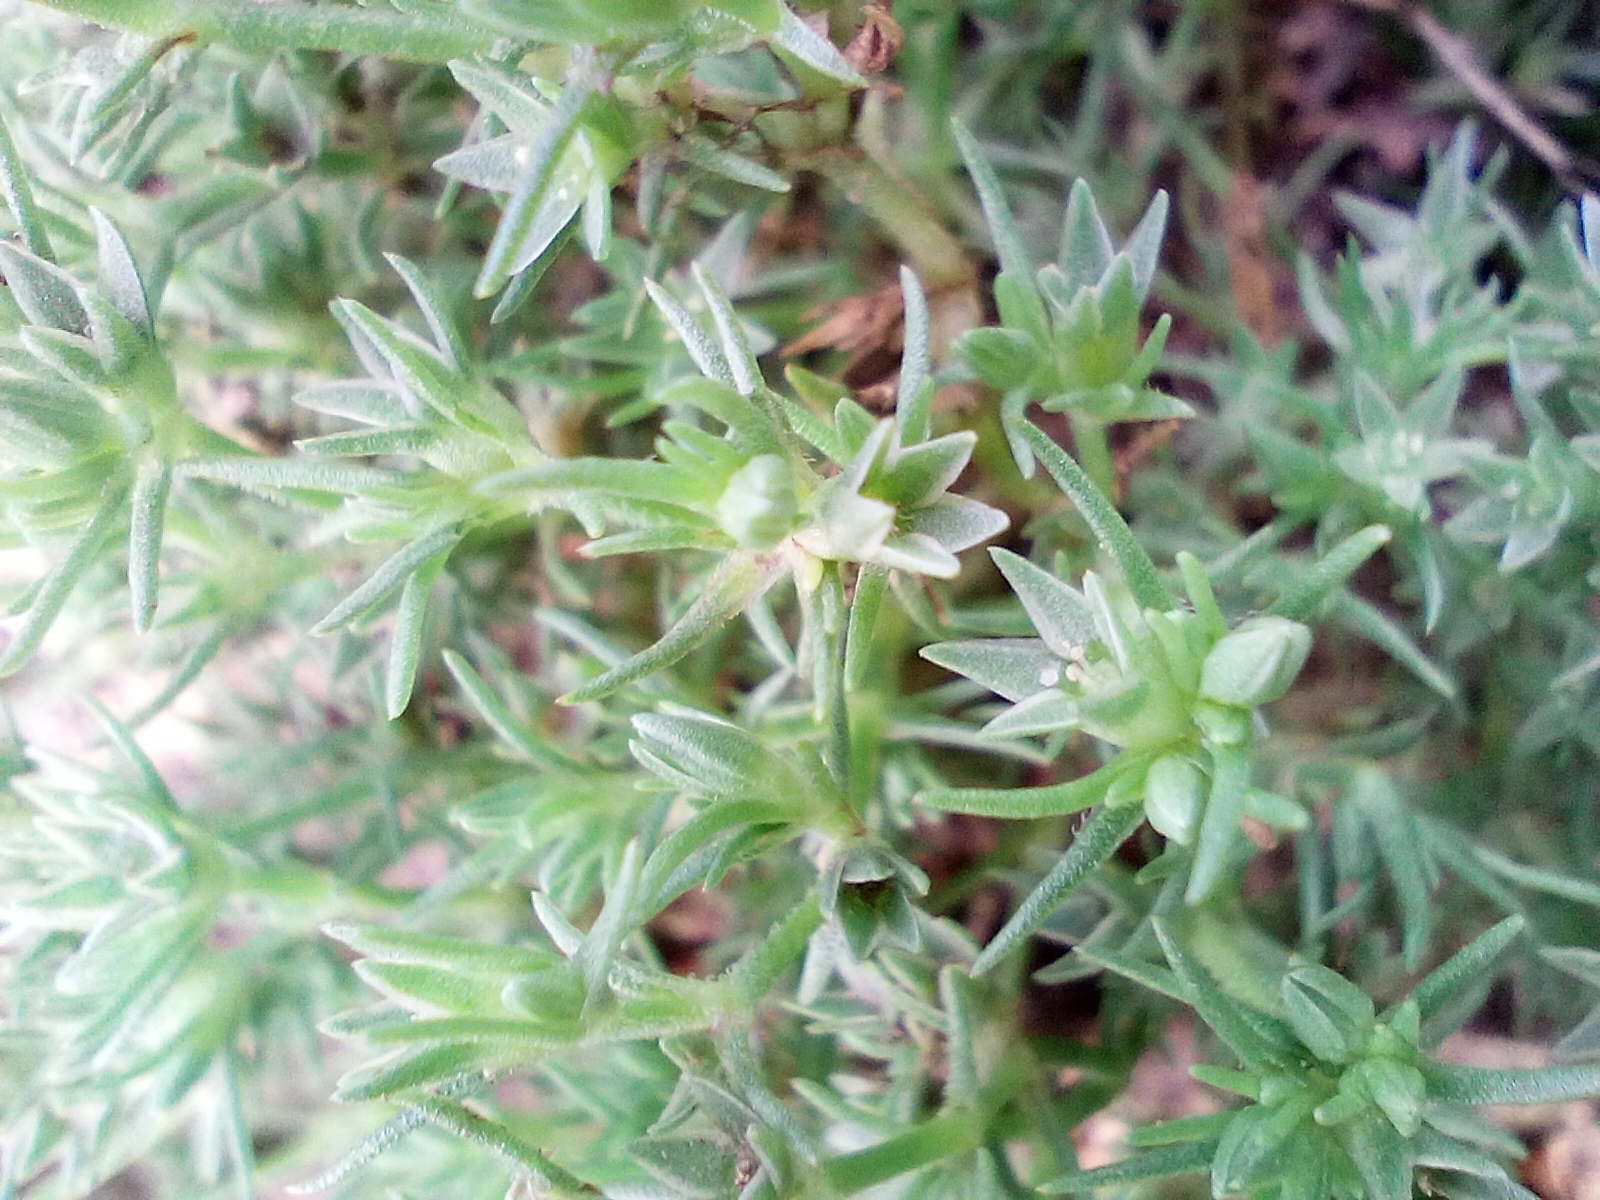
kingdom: Plantae
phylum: Tracheophyta
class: Magnoliopsida
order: Caryophyllales
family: Caryophyllaceae
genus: Scleranthus
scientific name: Scleranthus annuus
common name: Annual knawel
